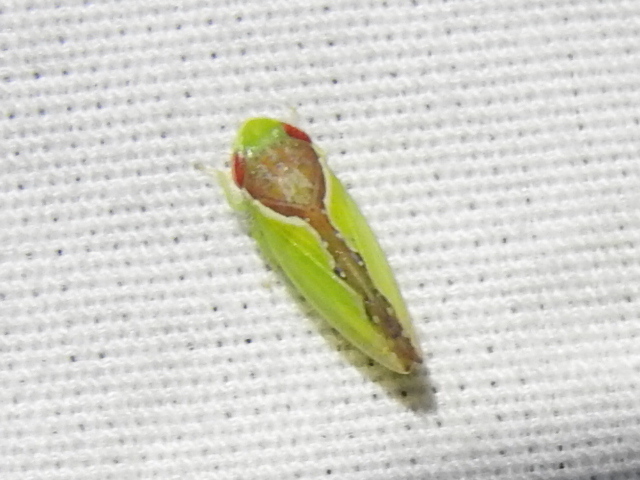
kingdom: Animalia
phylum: Arthropoda
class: Insecta
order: Hemiptera
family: Cicadellidae
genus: Omansobara ing
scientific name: Omansobara ing Omansobara palliolata
